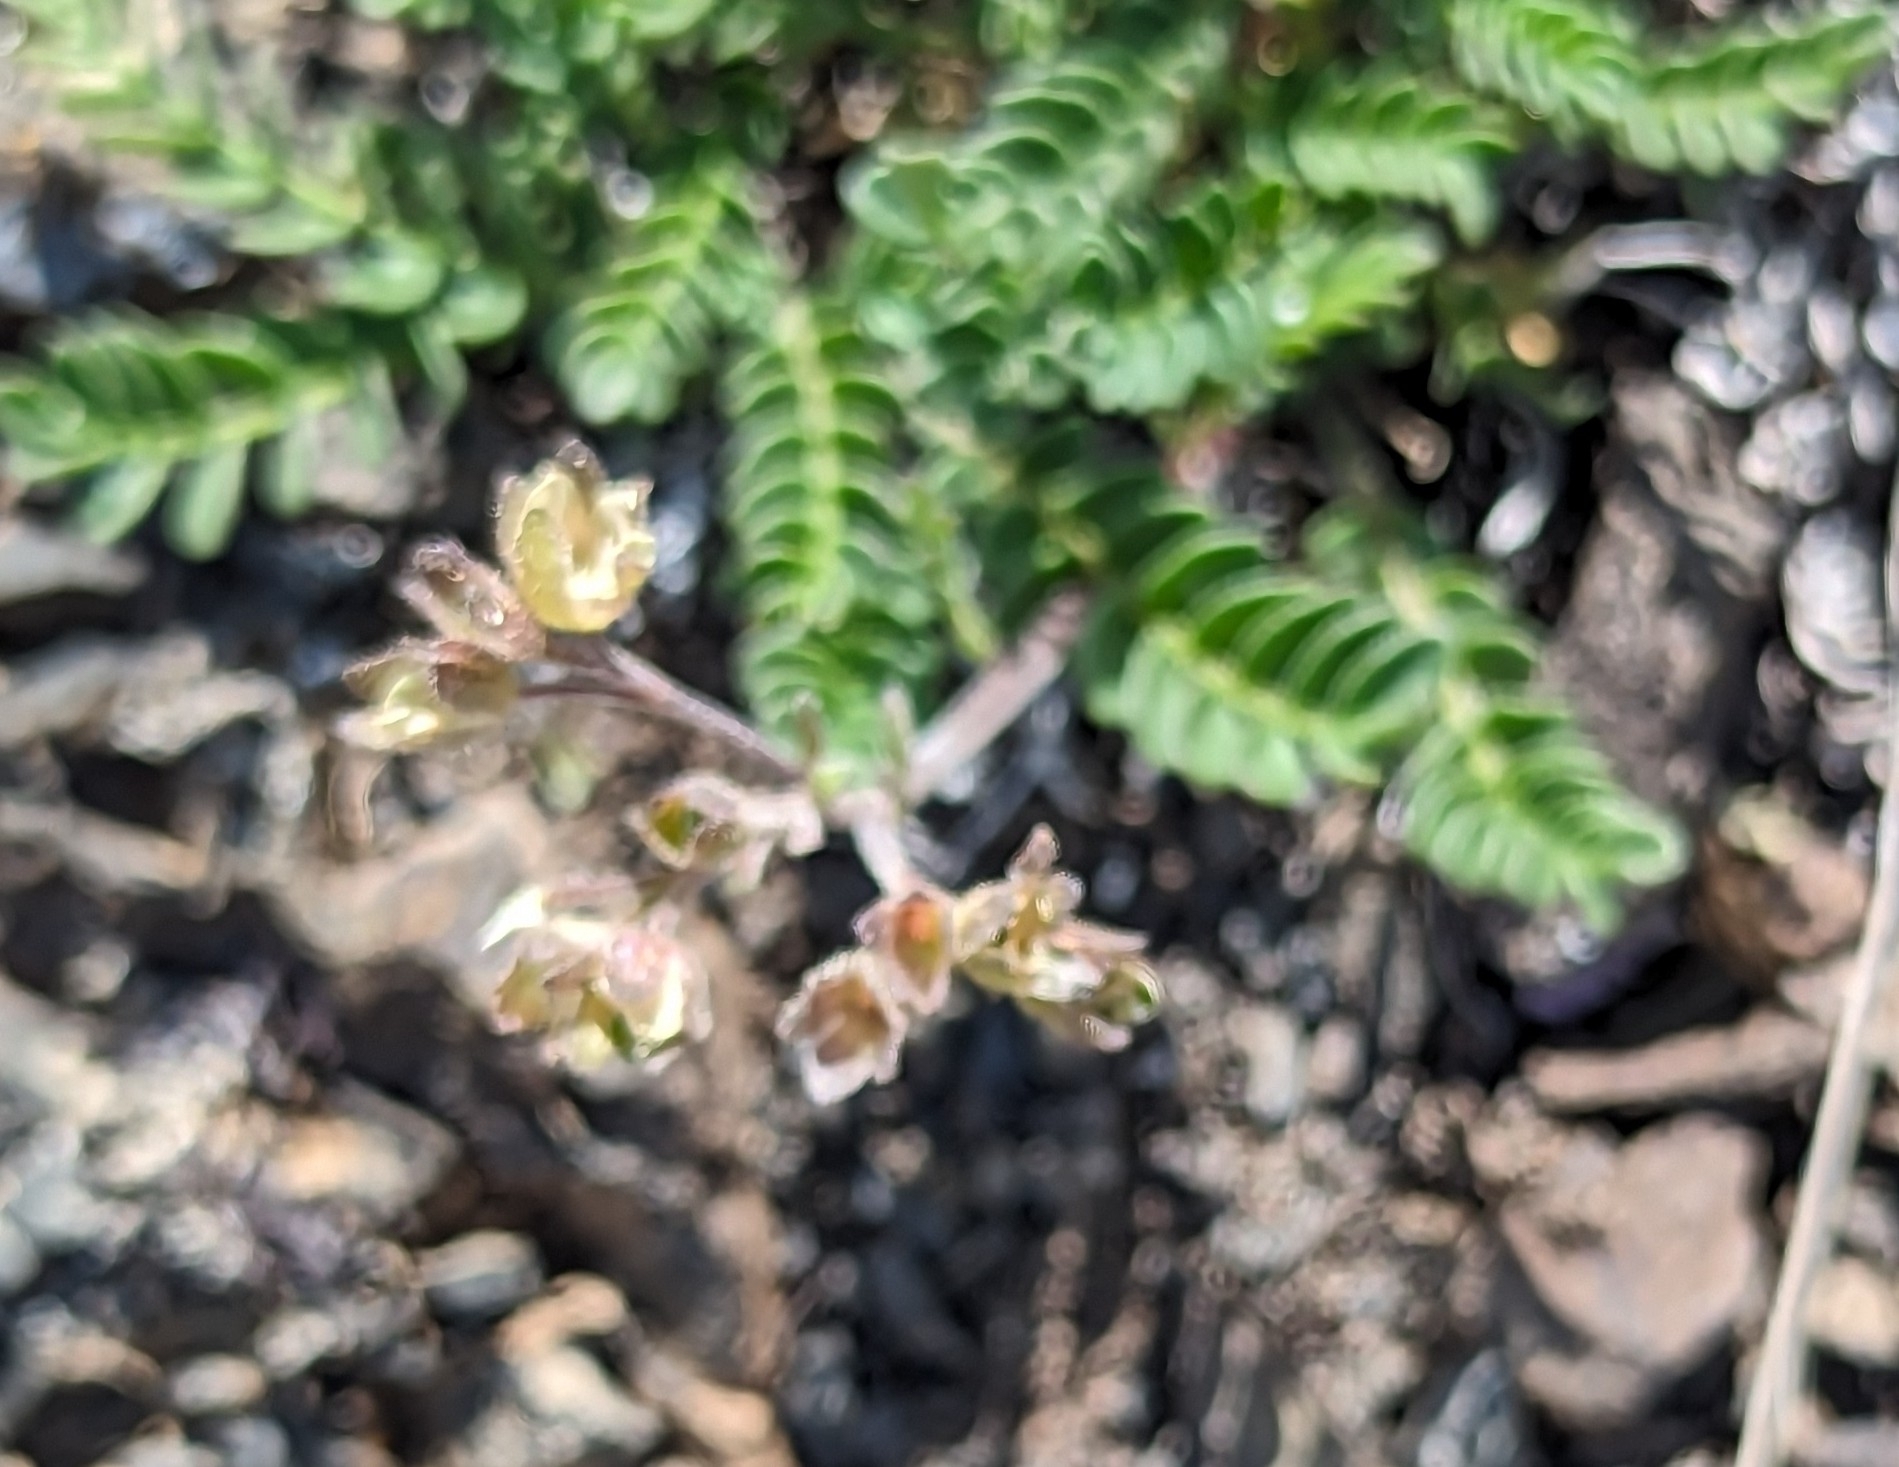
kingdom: Plantae
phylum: Tracheophyta
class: Magnoliopsida
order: Ericales
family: Polemoniaceae
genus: Polemonium
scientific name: Polemonium pulcherrimum
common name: Short jacob's-ladder
